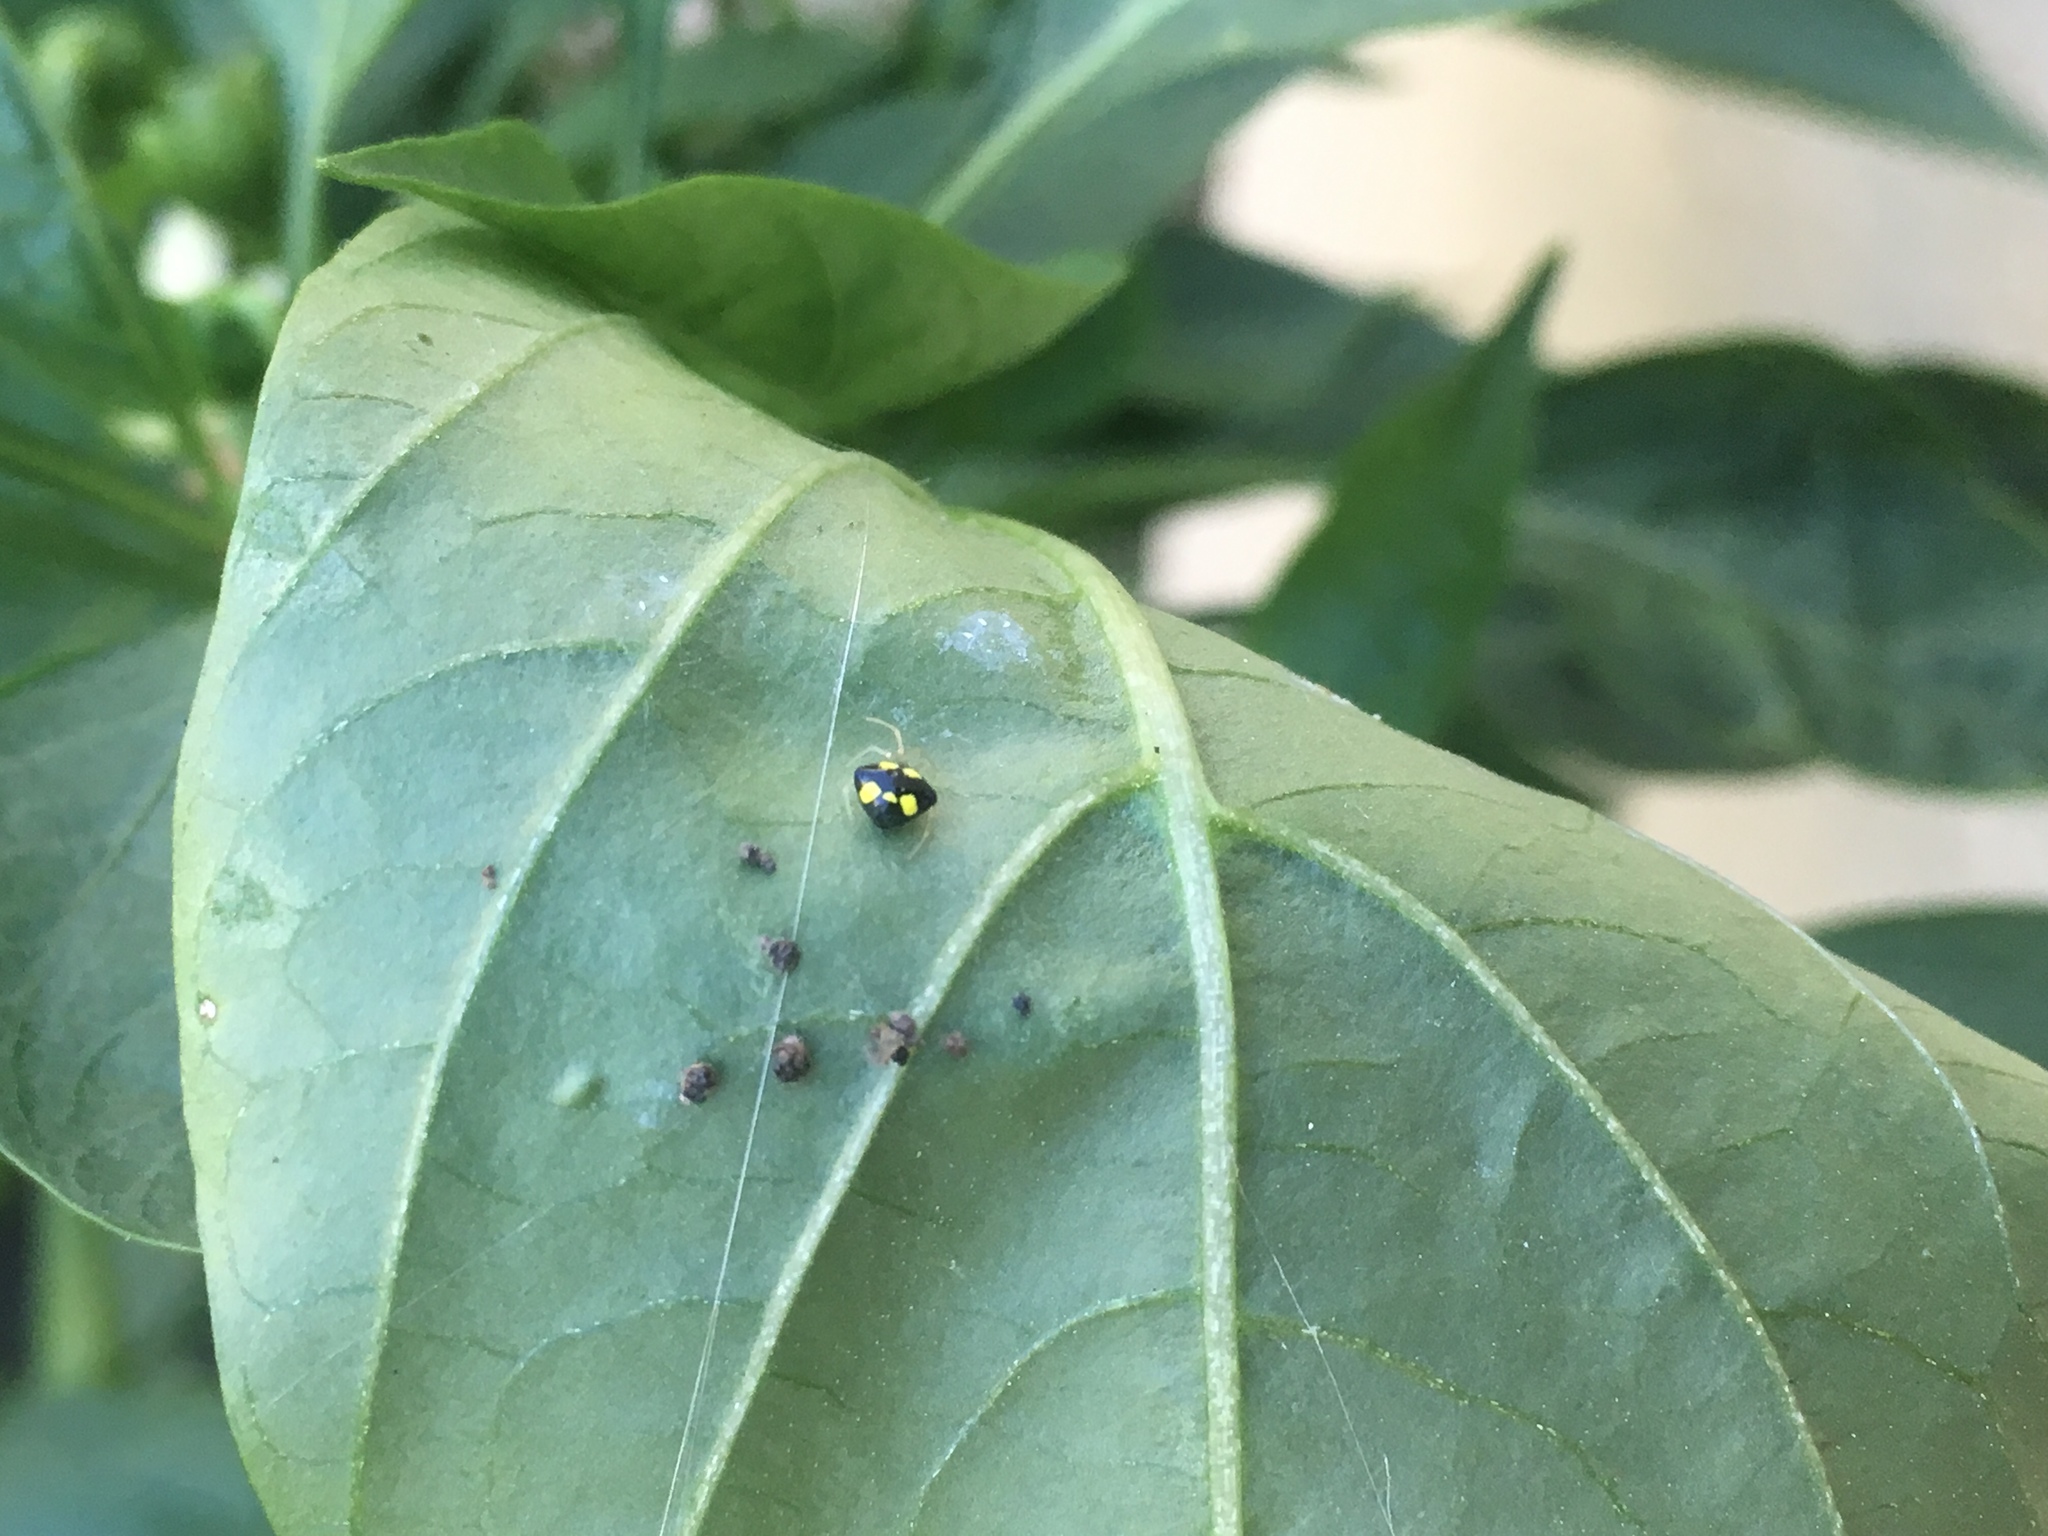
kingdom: Animalia
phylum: Arthropoda
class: Arachnida
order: Araneae
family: Theridiidae
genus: Theridula
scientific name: Theridula gonygaster
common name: Cobweb spiders
